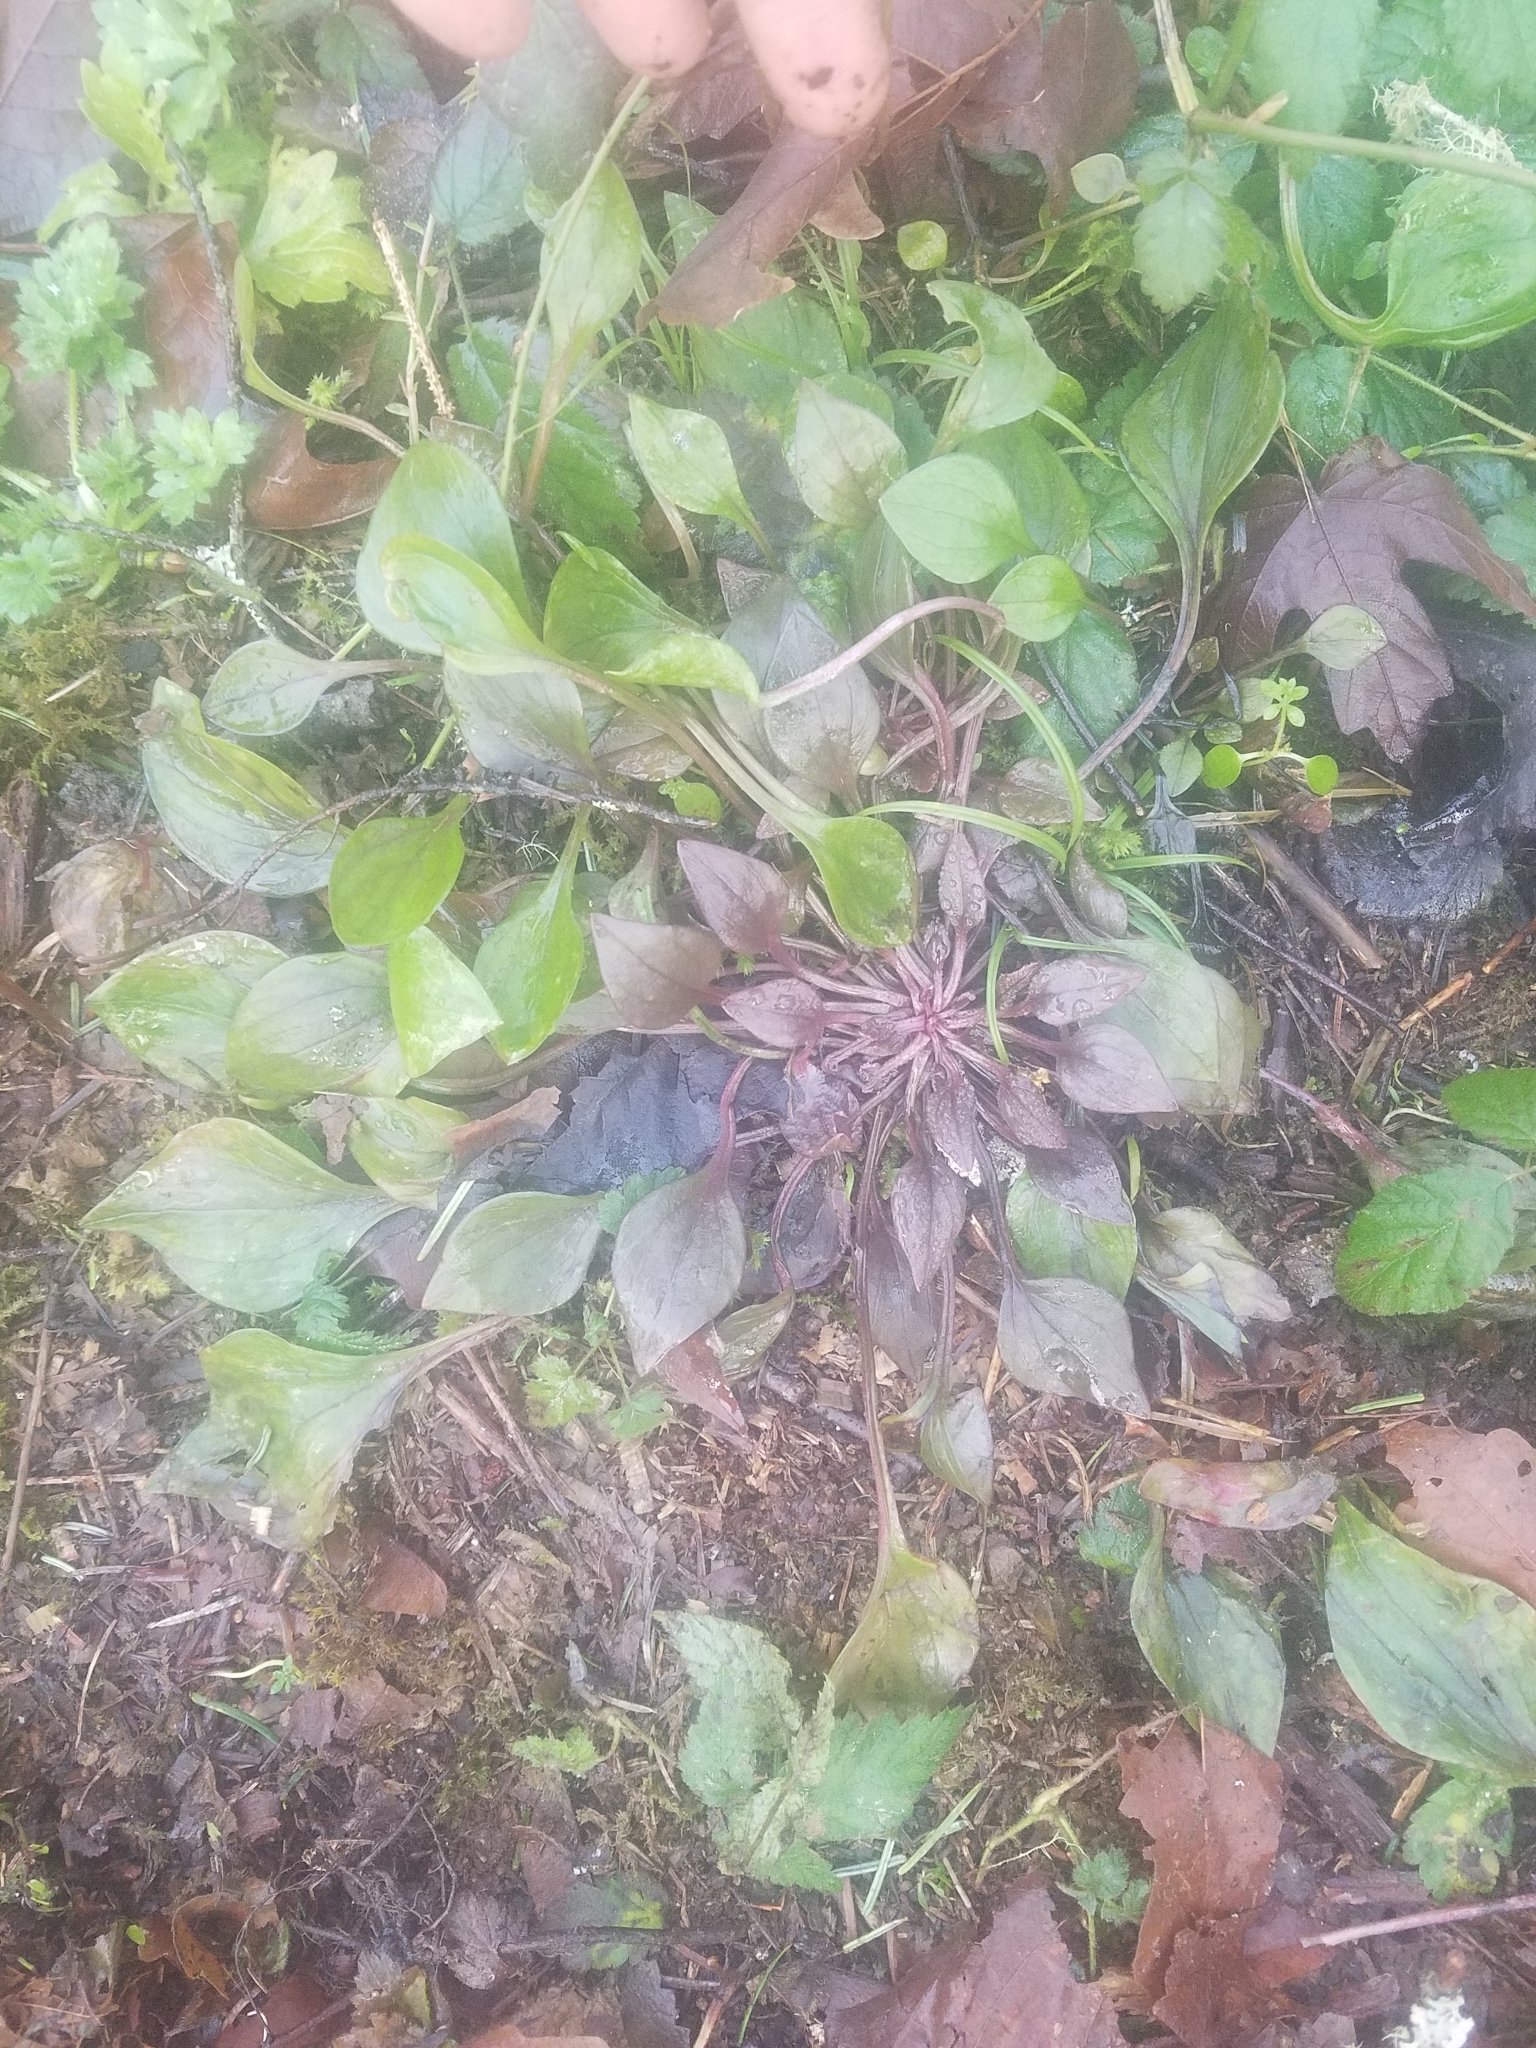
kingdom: Plantae
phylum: Tracheophyta
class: Magnoliopsida
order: Caryophyllales
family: Montiaceae
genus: Claytonia
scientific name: Claytonia sibirica
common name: Pink purslane
